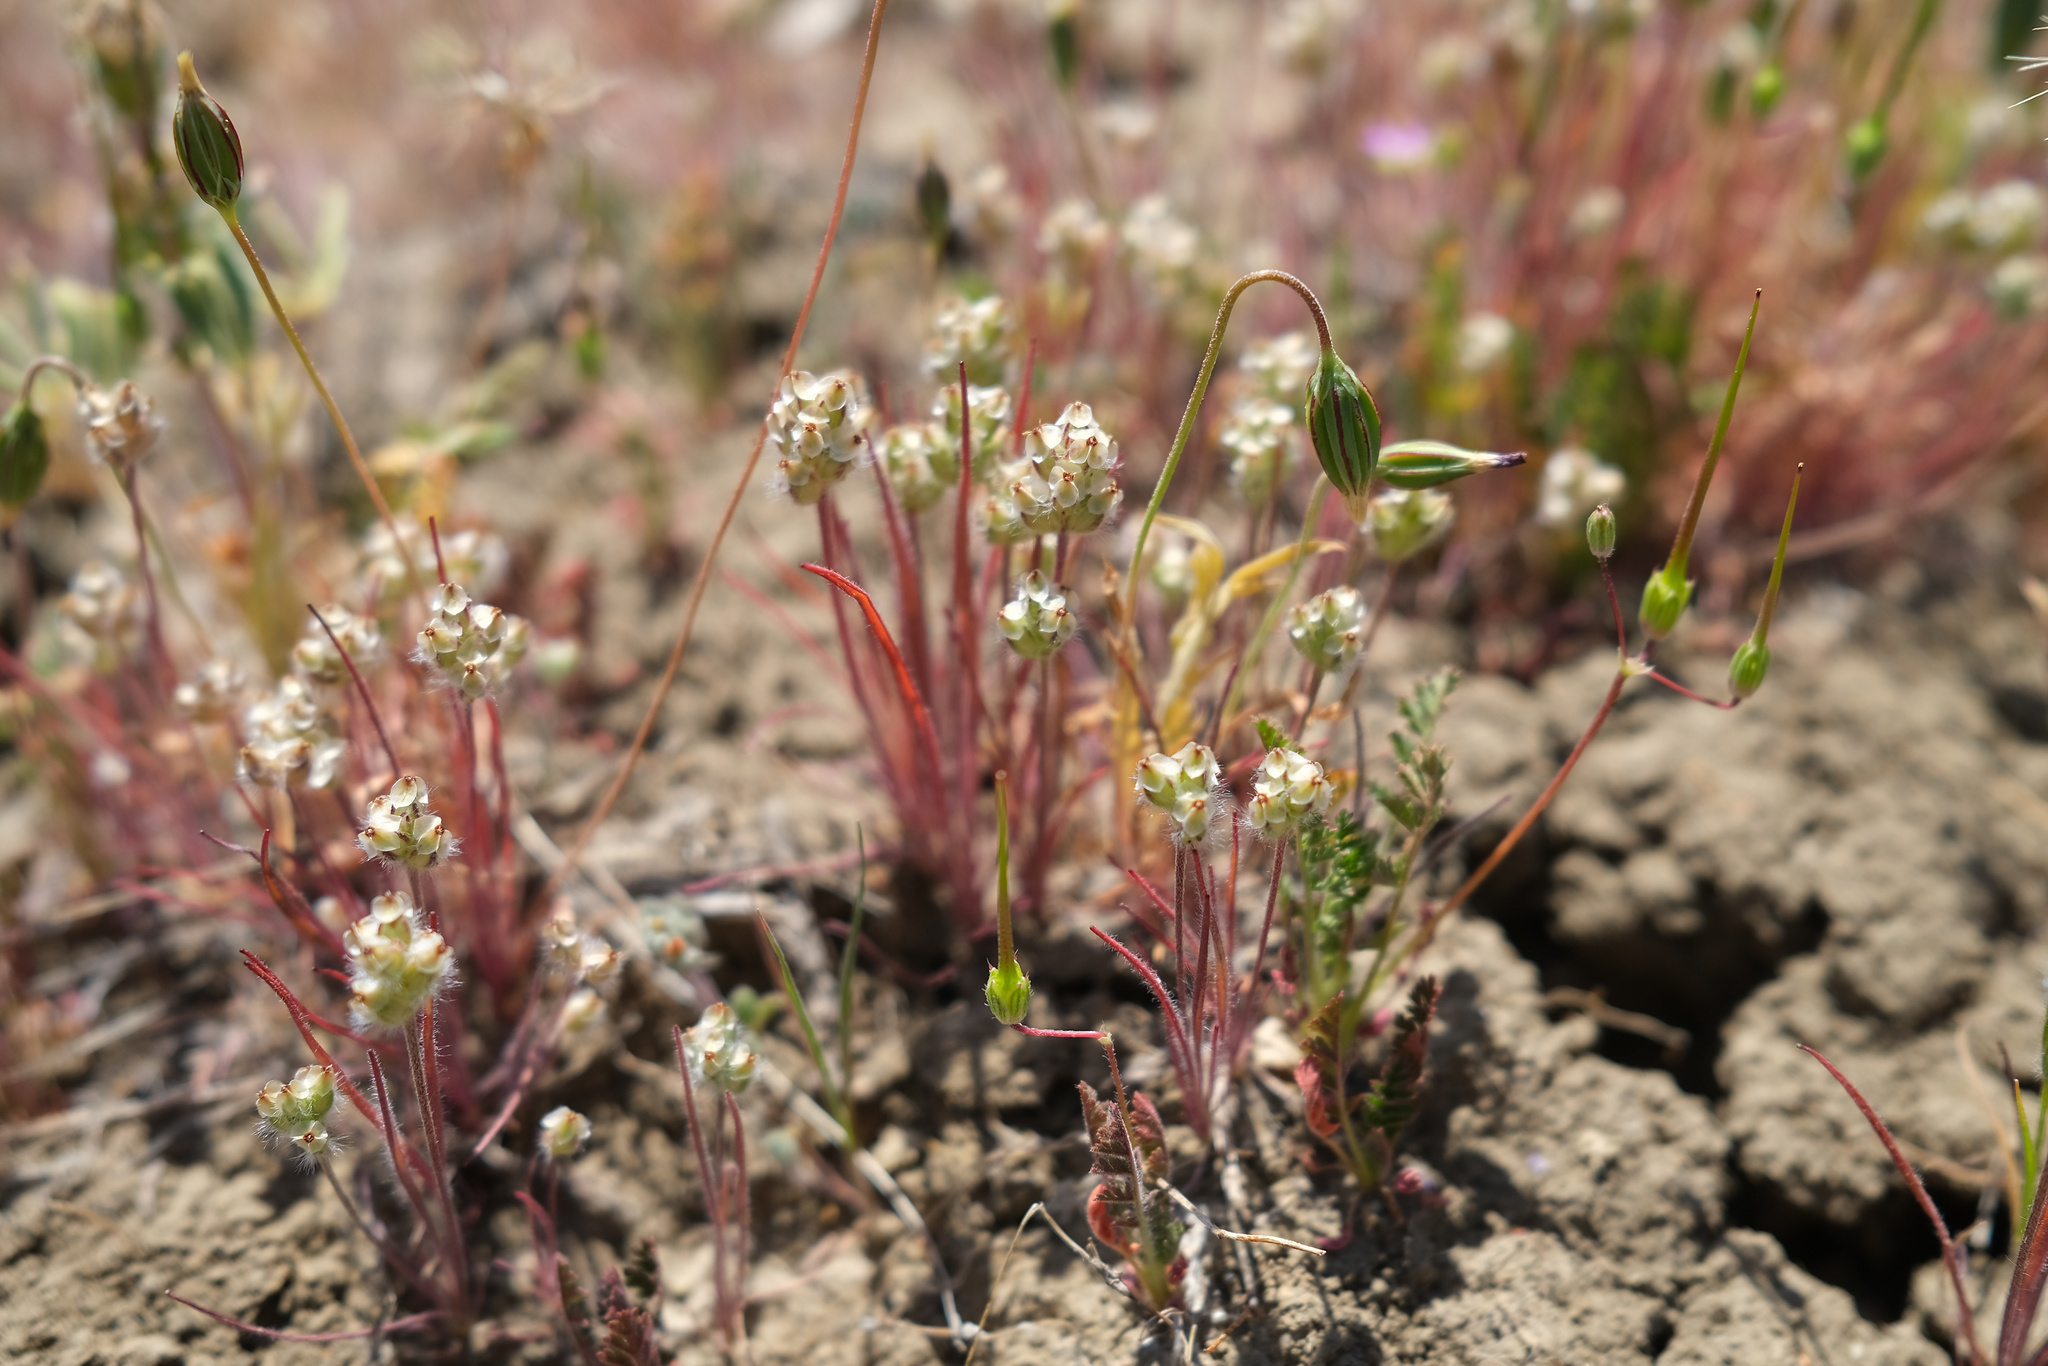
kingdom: Plantae
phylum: Tracheophyta
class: Magnoliopsida
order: Lamiales
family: Plantaginaceae
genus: Plantago
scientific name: Plantago erecta
